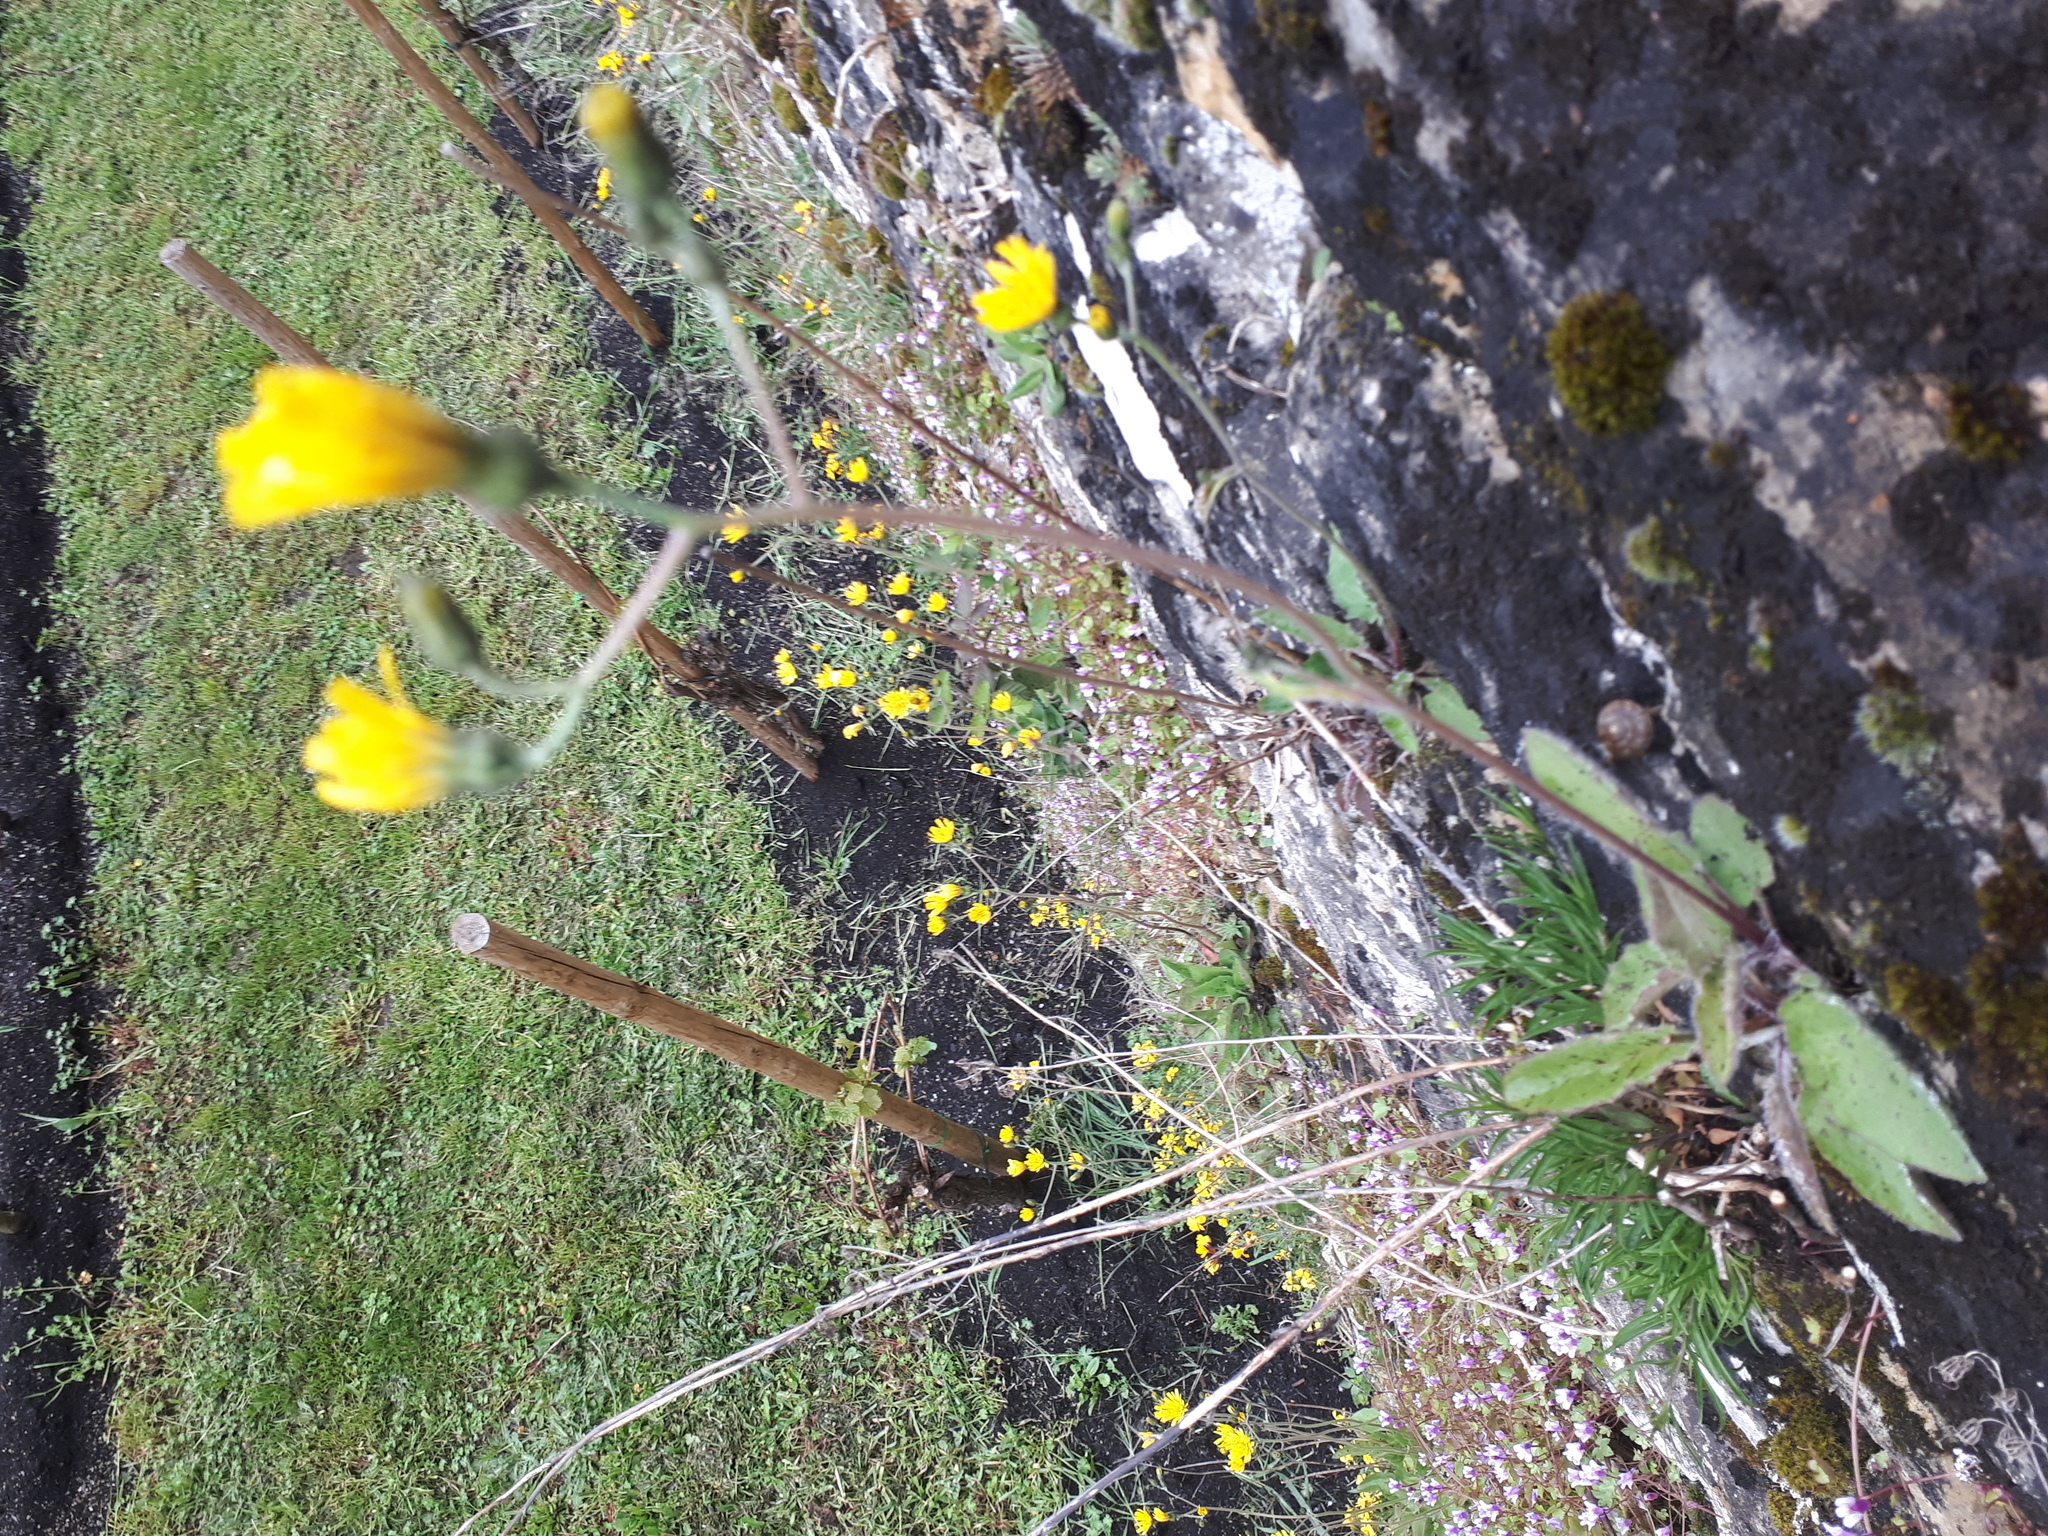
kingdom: Plantae
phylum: Tracheophyta
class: Magnoliopsida
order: Asterales
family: Asteraceae
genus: Hieracium
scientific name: Hieracium murorum
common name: Wall hawkweed
